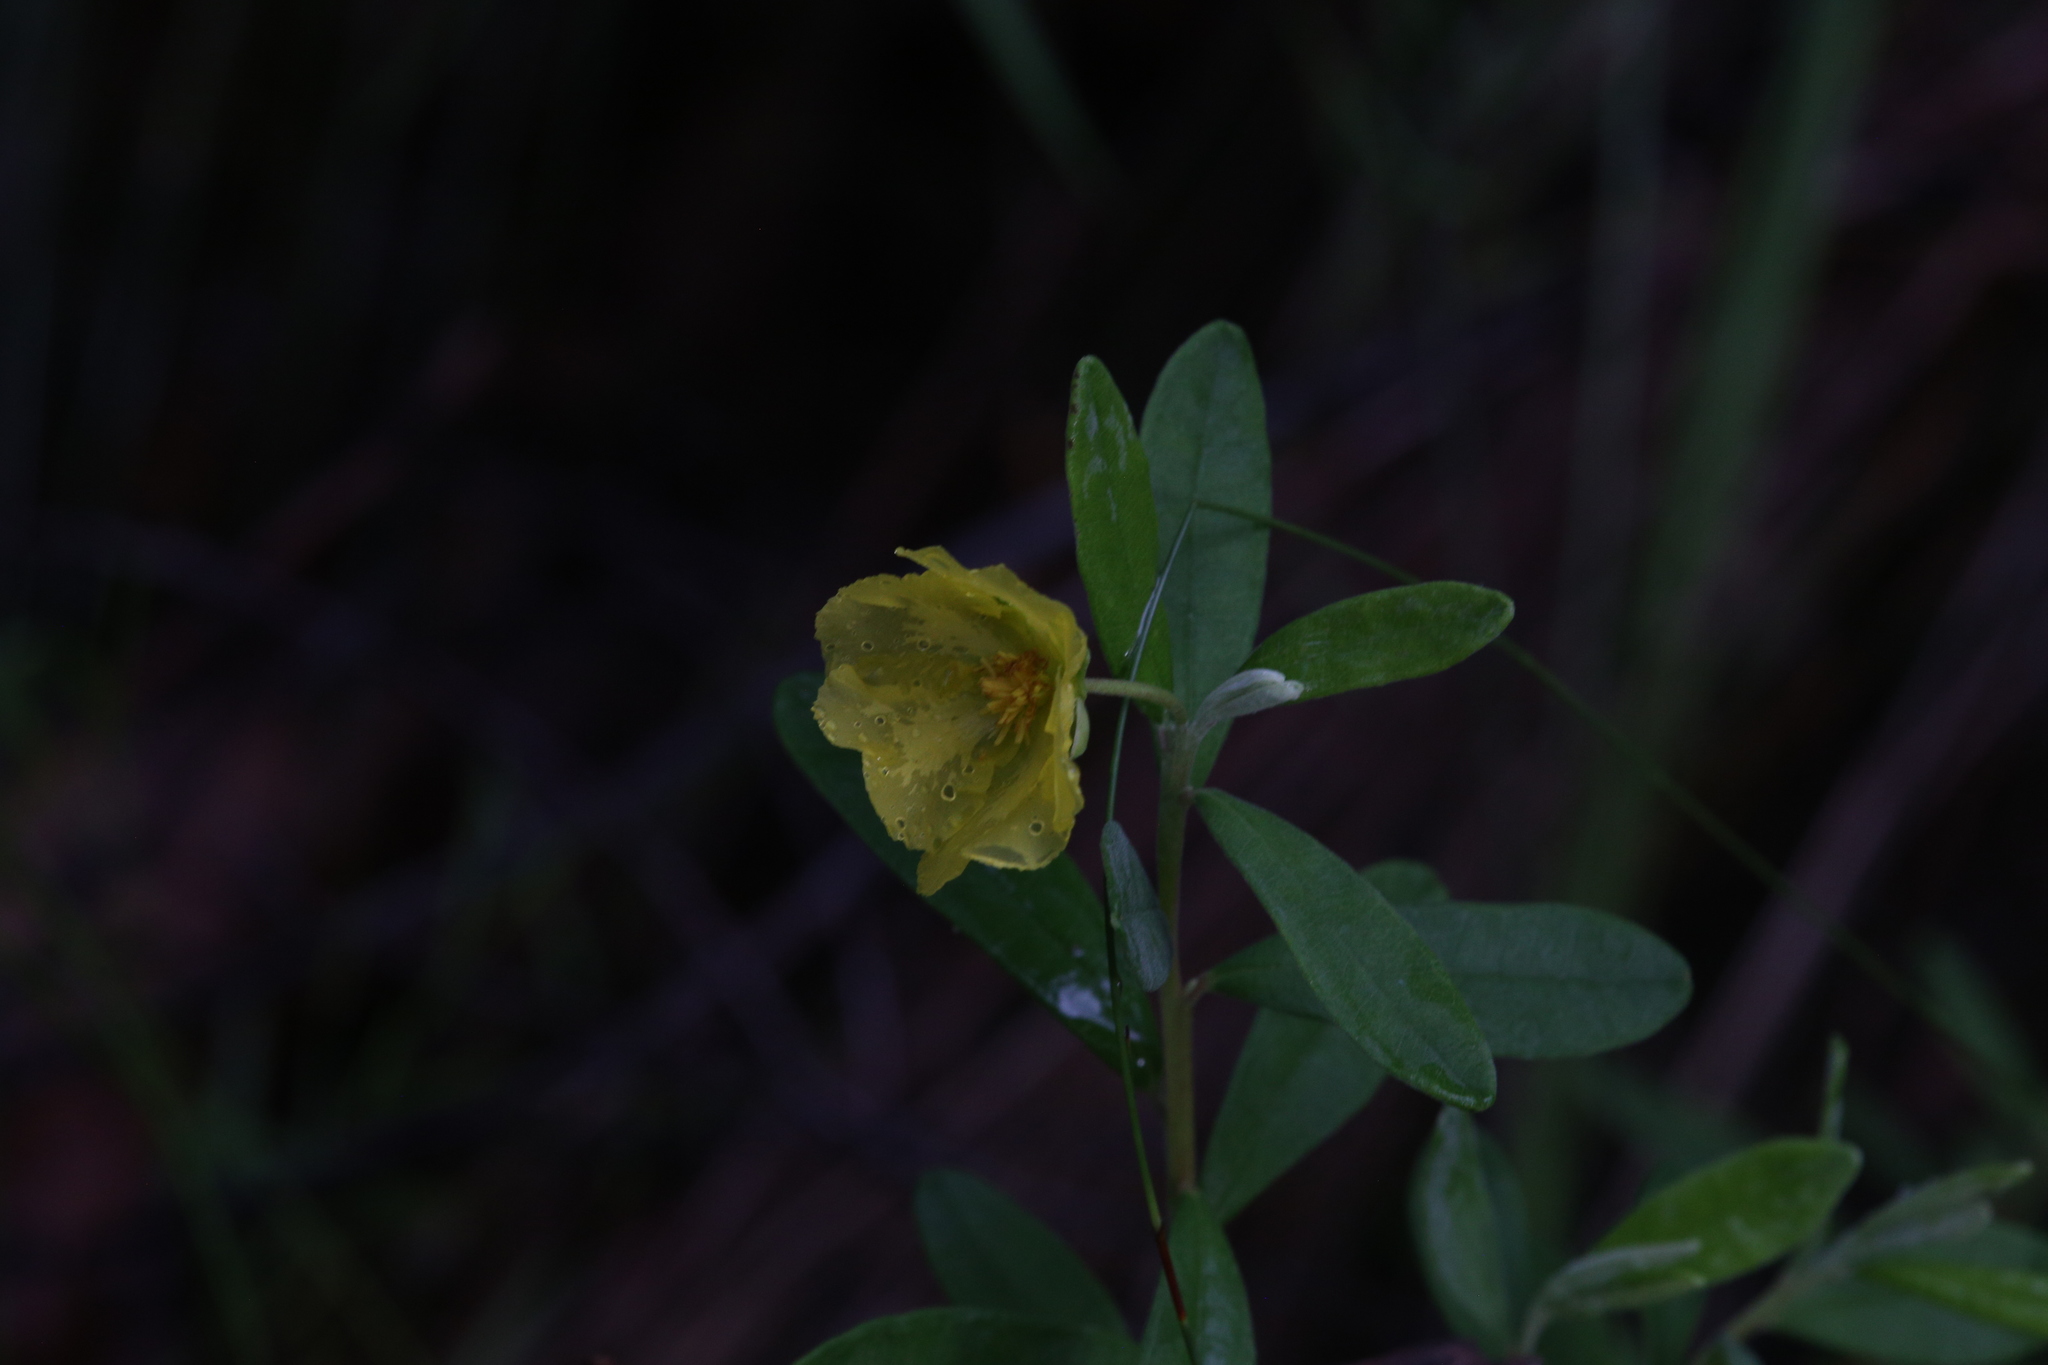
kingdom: Plantae
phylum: Tracheophyta
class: Magnoliopsida
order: Dilleniales
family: Dilleniaceae
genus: Hibbertia
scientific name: Hibbertia melhanioides
